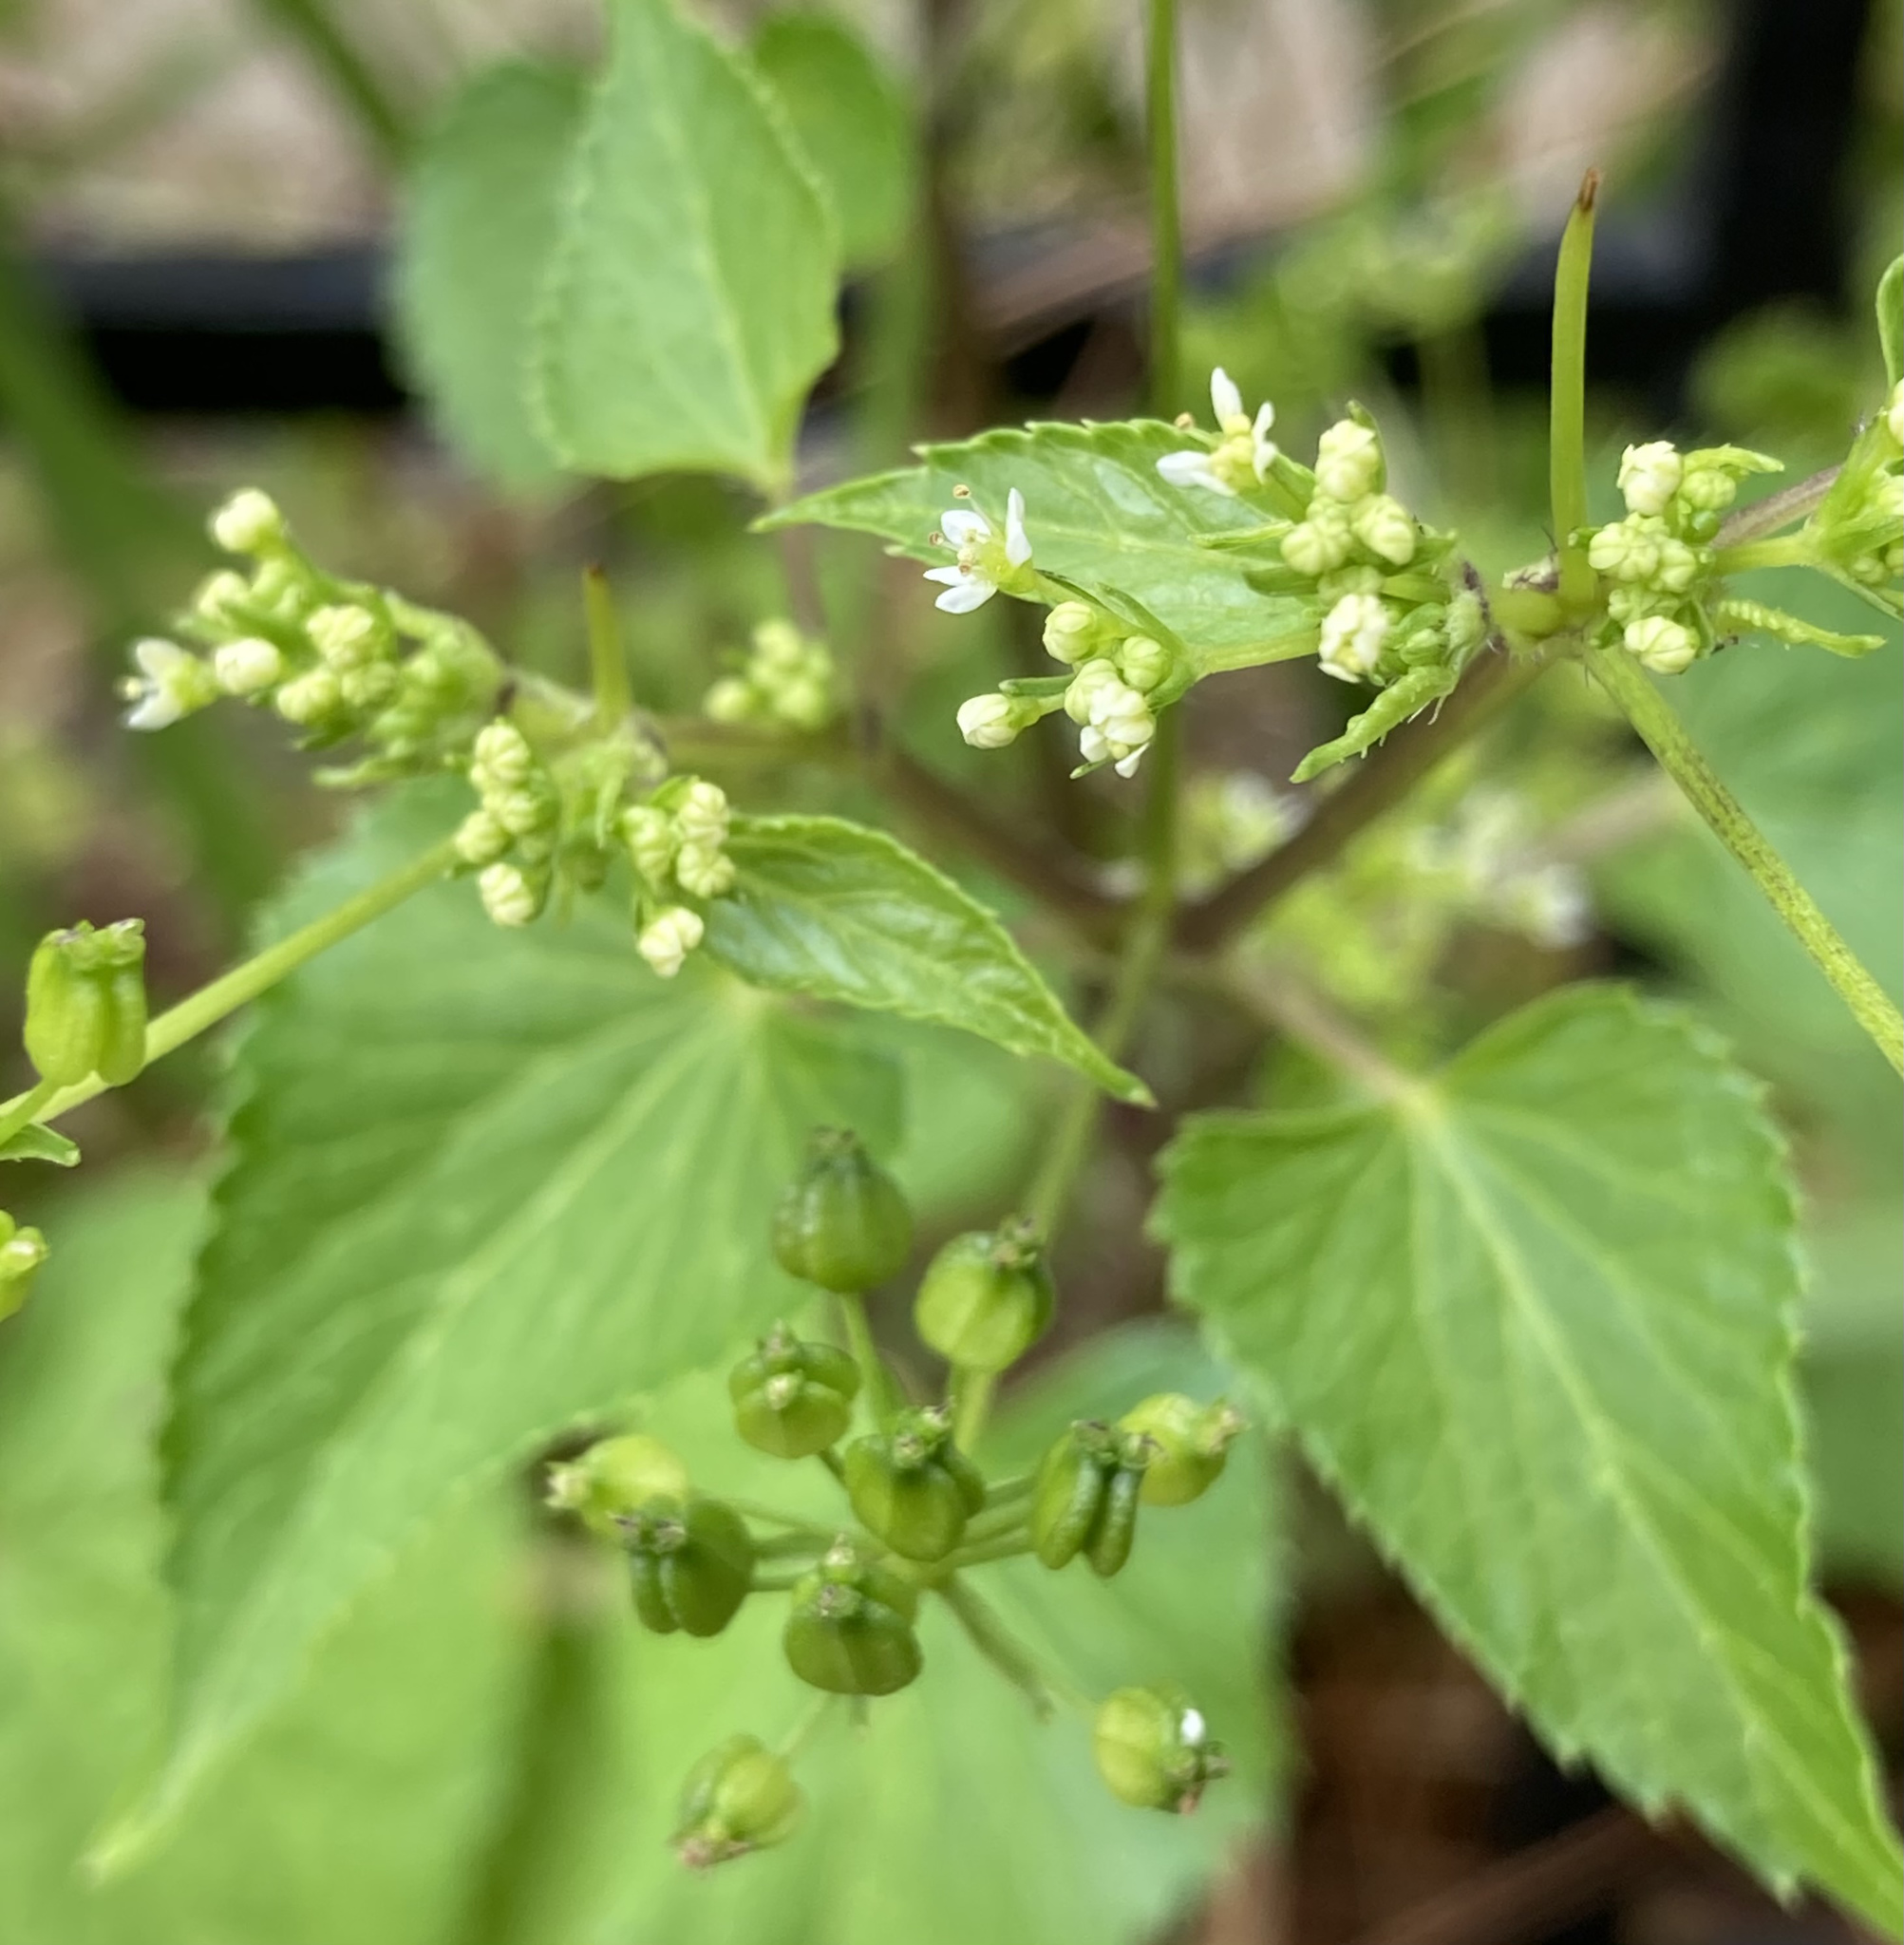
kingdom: Plantae
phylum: Tracheophyta
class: Magnoliopsida
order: Apiales
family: Apiaceae
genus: Spananthe
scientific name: Spananthe paniculata
